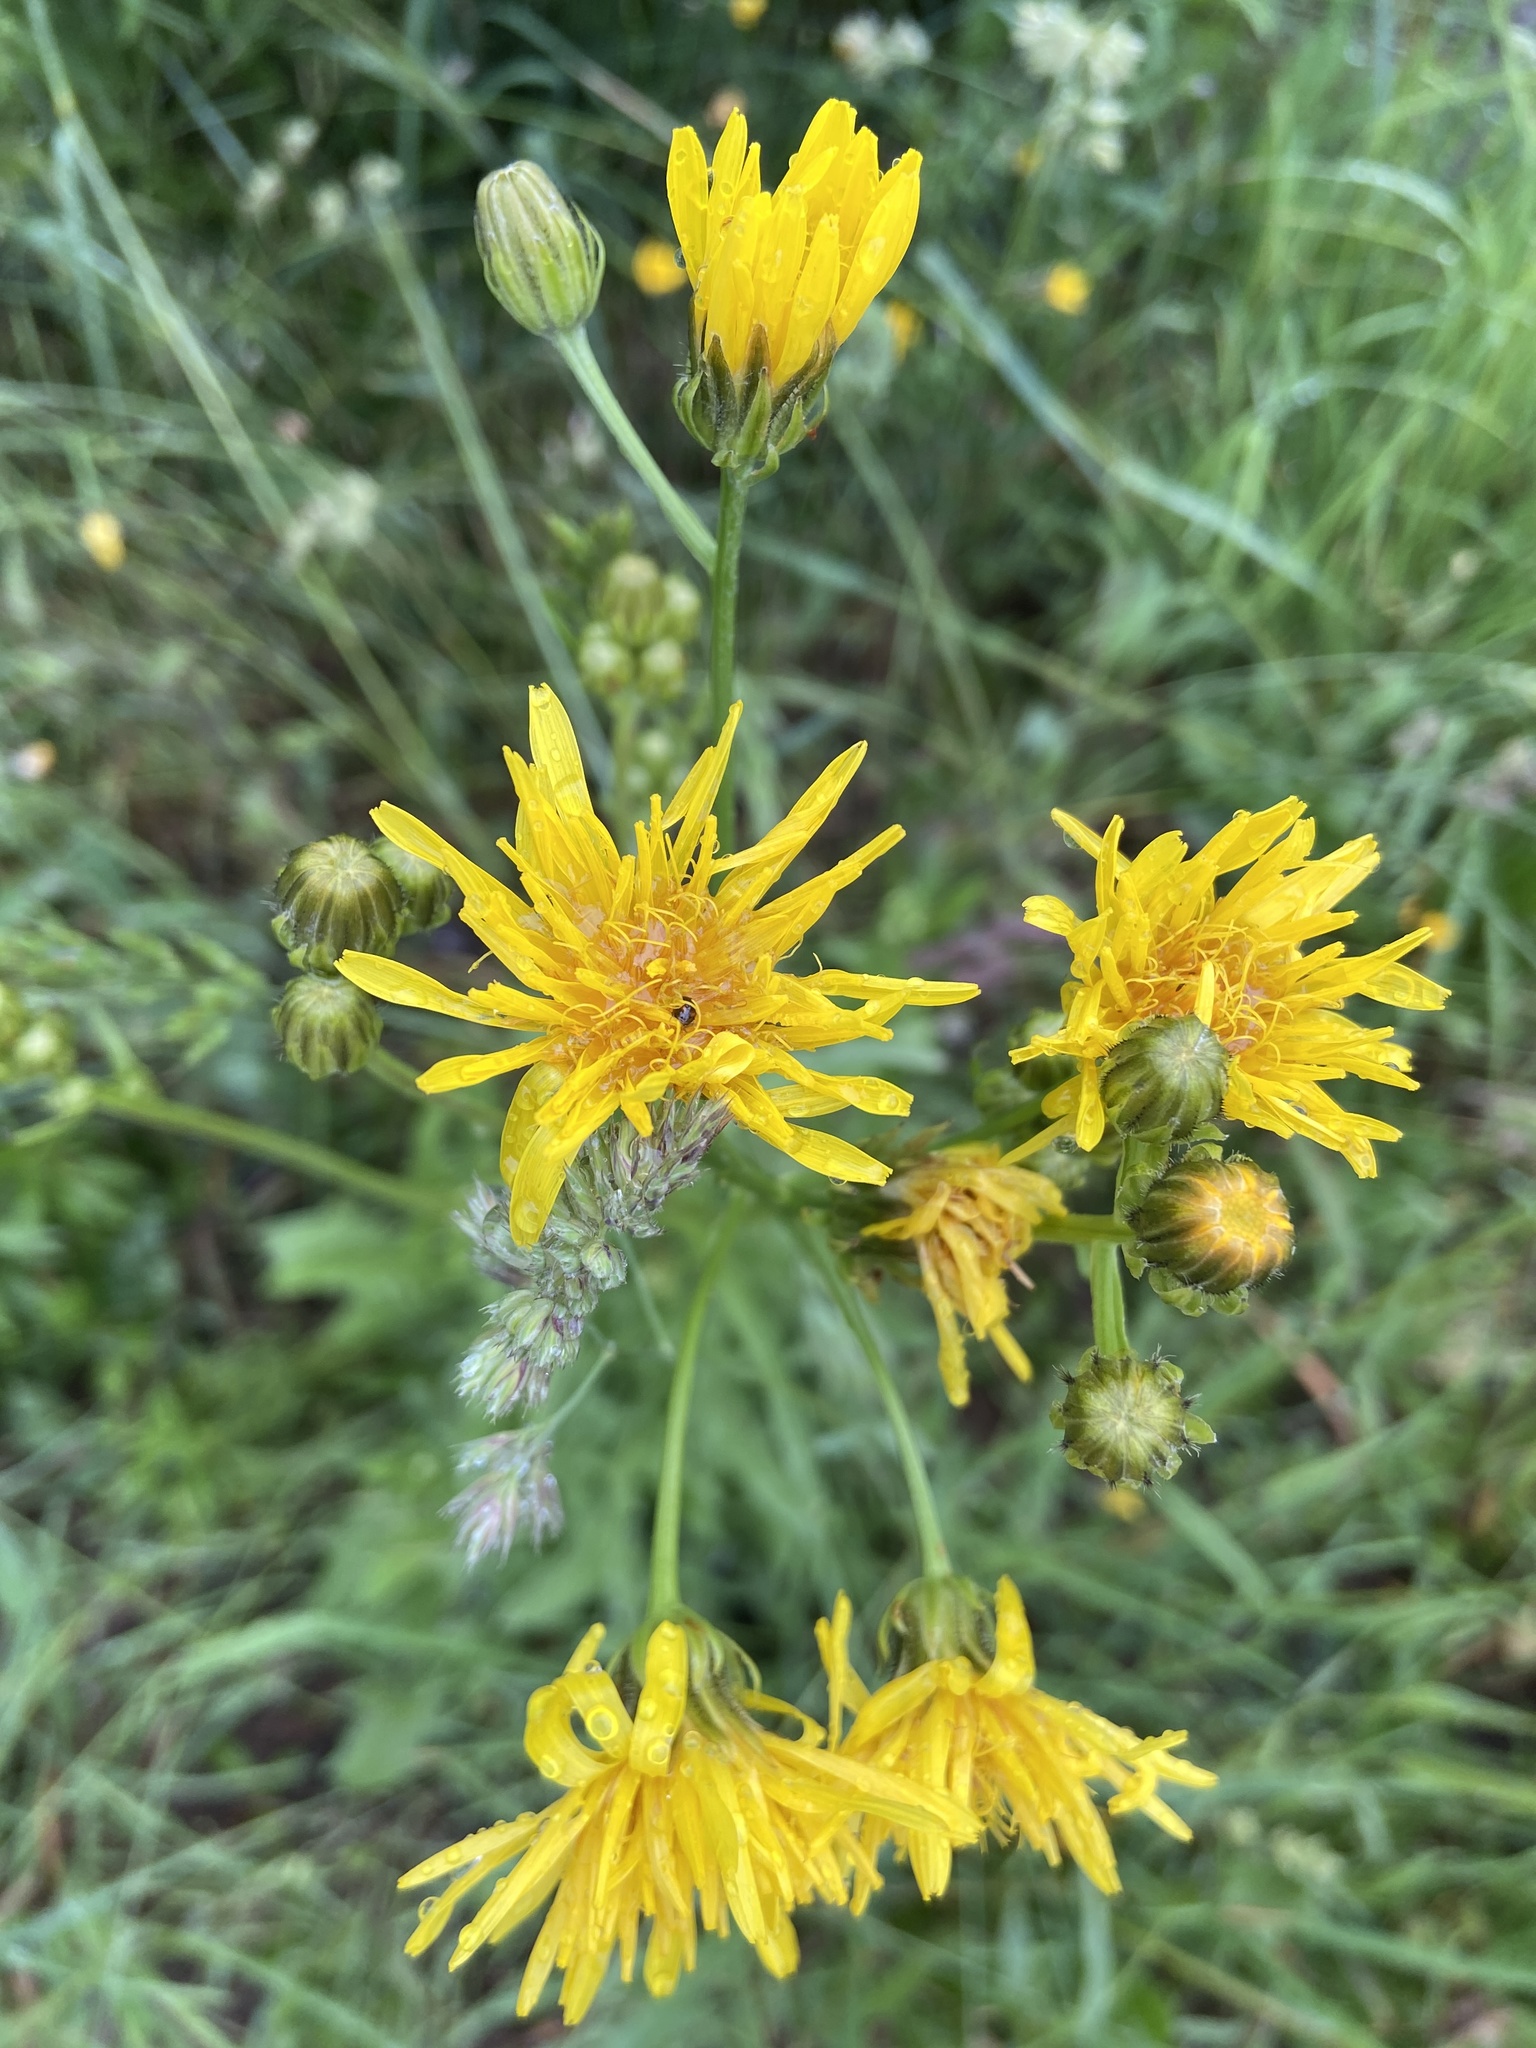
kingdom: Plantae
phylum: Tracheophyta
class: Magnoliopsida
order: Asterales
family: Asteraceae
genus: Crepis
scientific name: Crepis biennis
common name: Rough hawk's-beard
